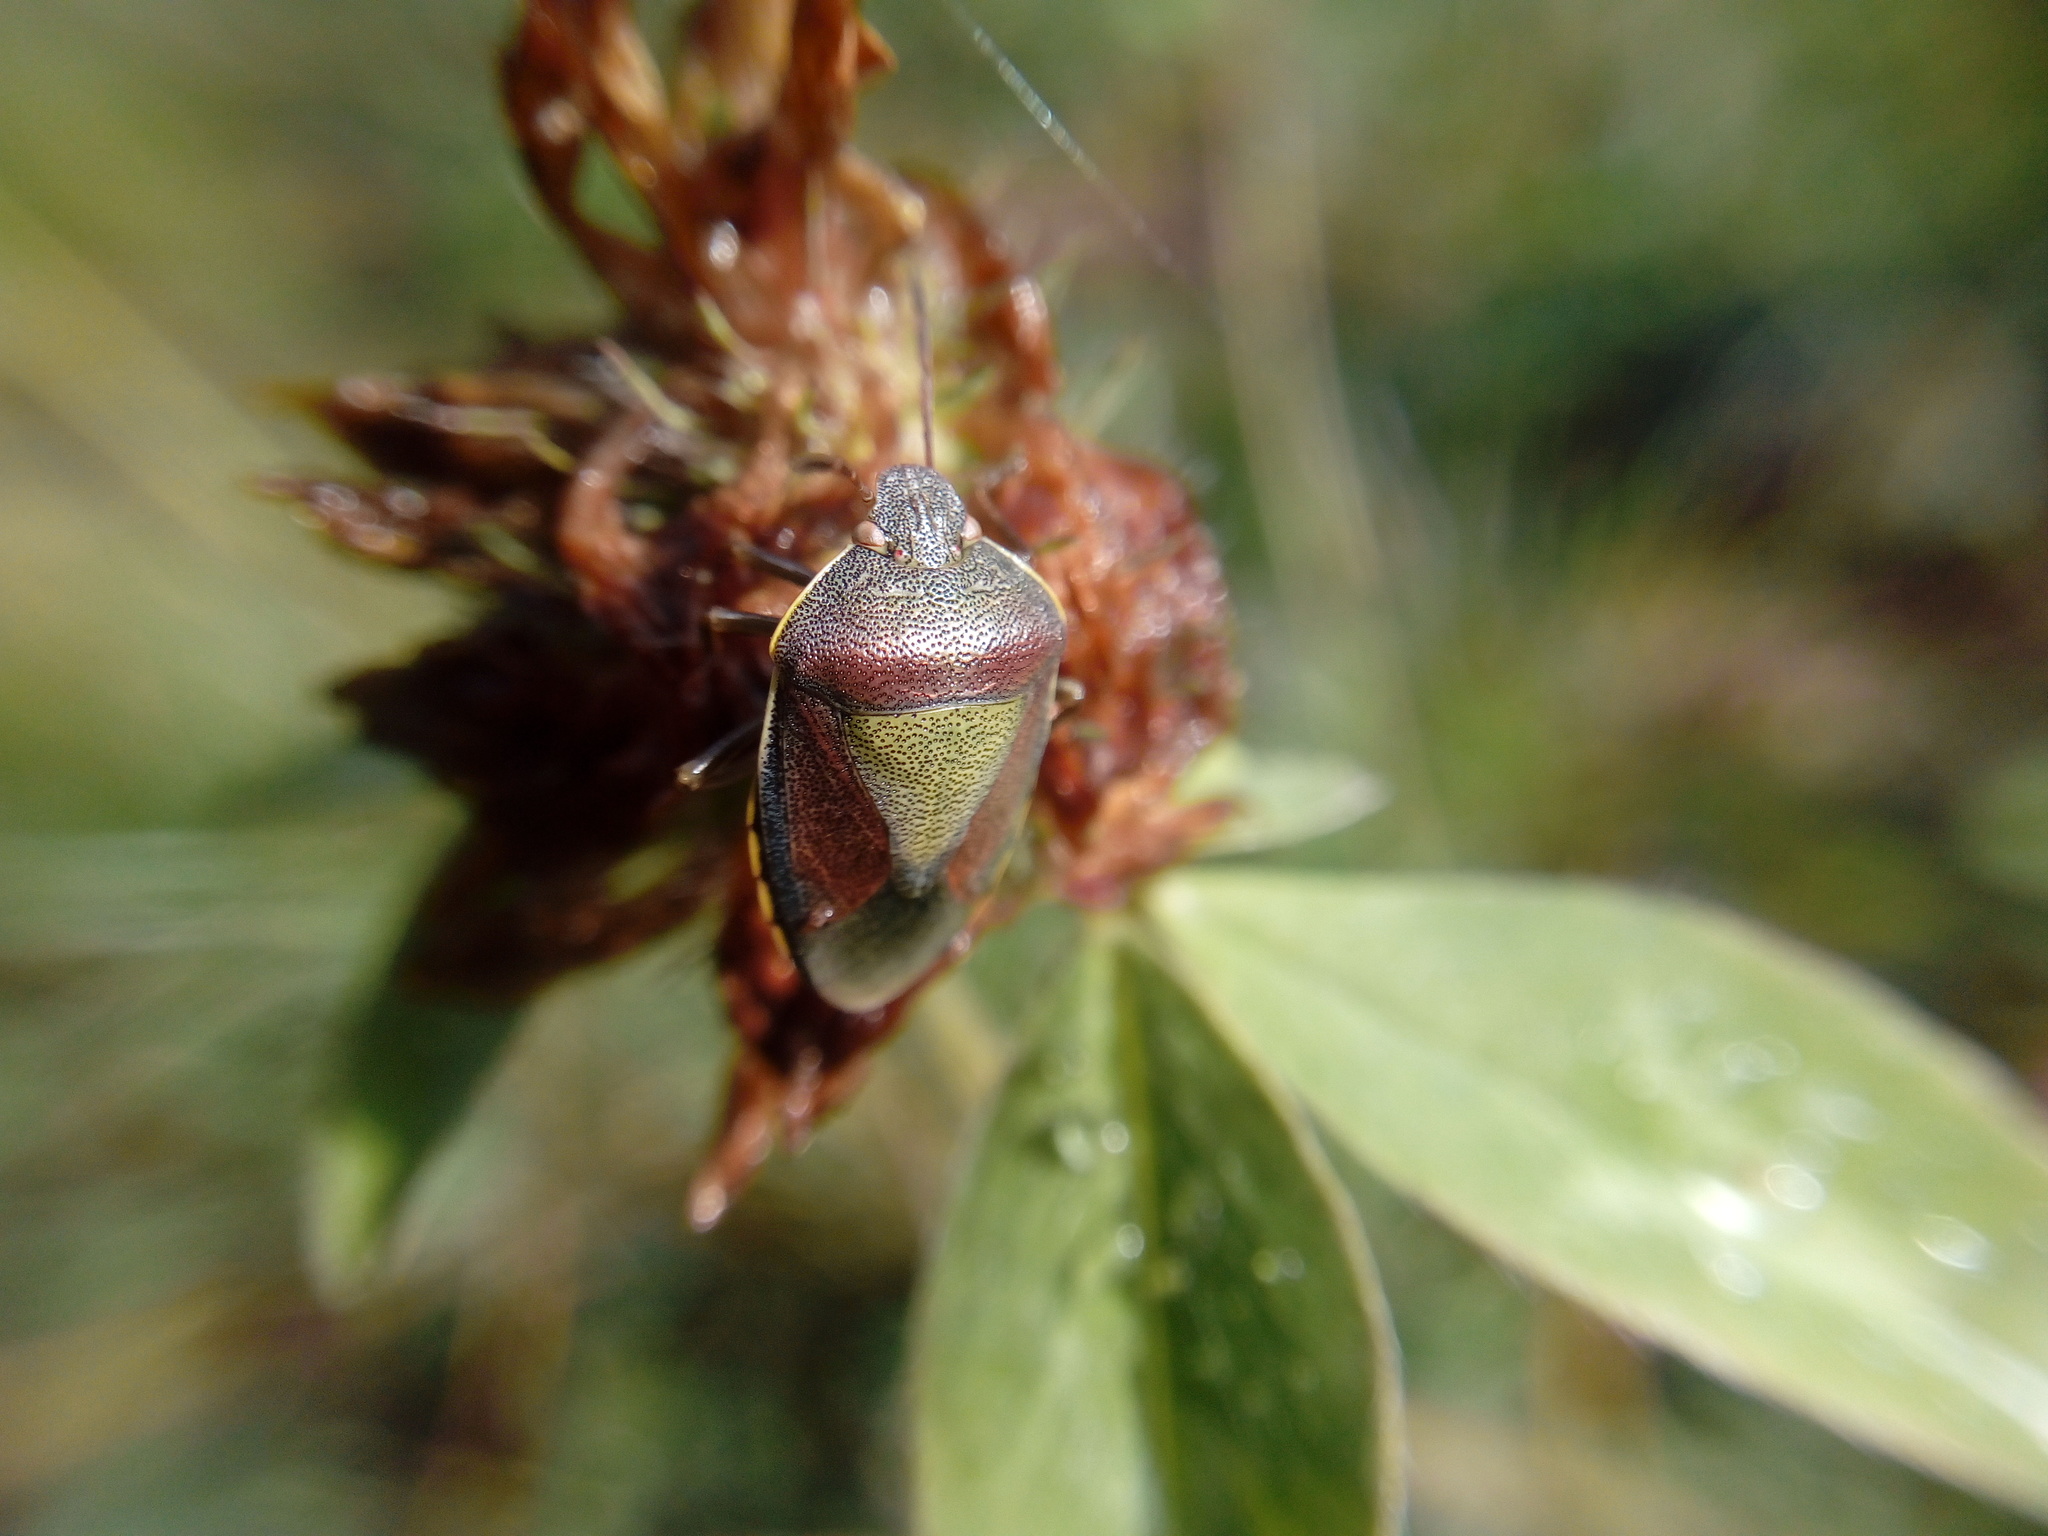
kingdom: Animalia
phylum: Arthropoda
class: Insecta
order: Hemiptera
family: Pentatomidae
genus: Piezodorus
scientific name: Piezodorus lituratus
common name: Stink bug
